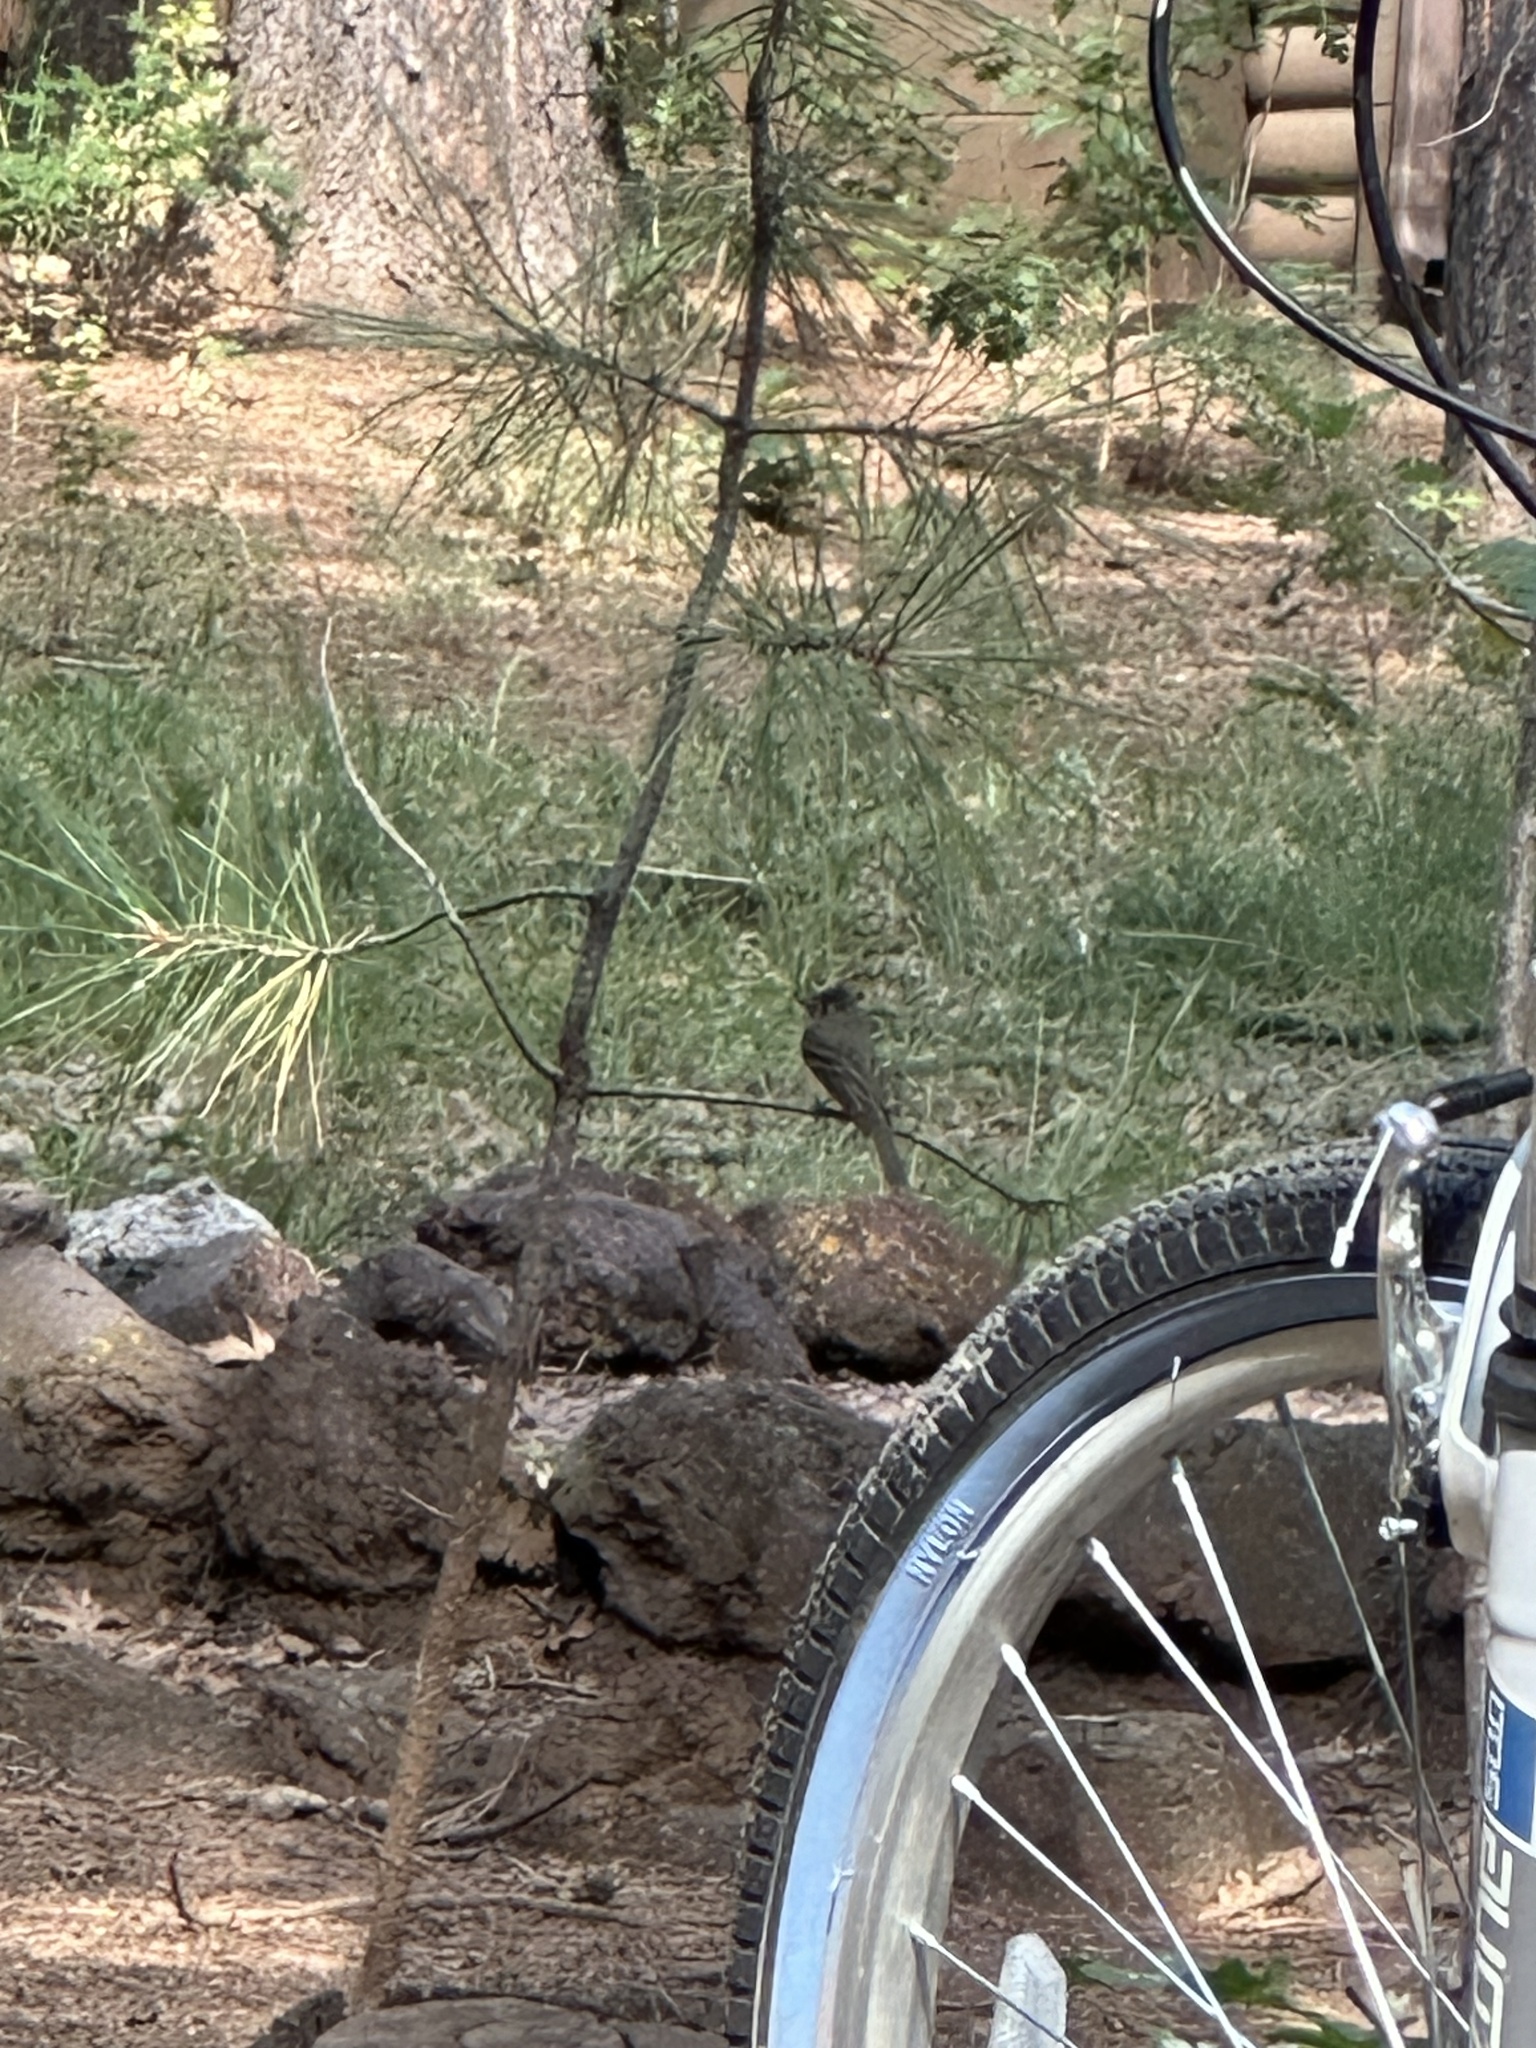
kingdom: Animalia
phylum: Chordata
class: Aves
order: Passeriformes
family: Tyrannidae
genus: Empidonax
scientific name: Empidonax difficilis
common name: Pacific-slope flycatcher
